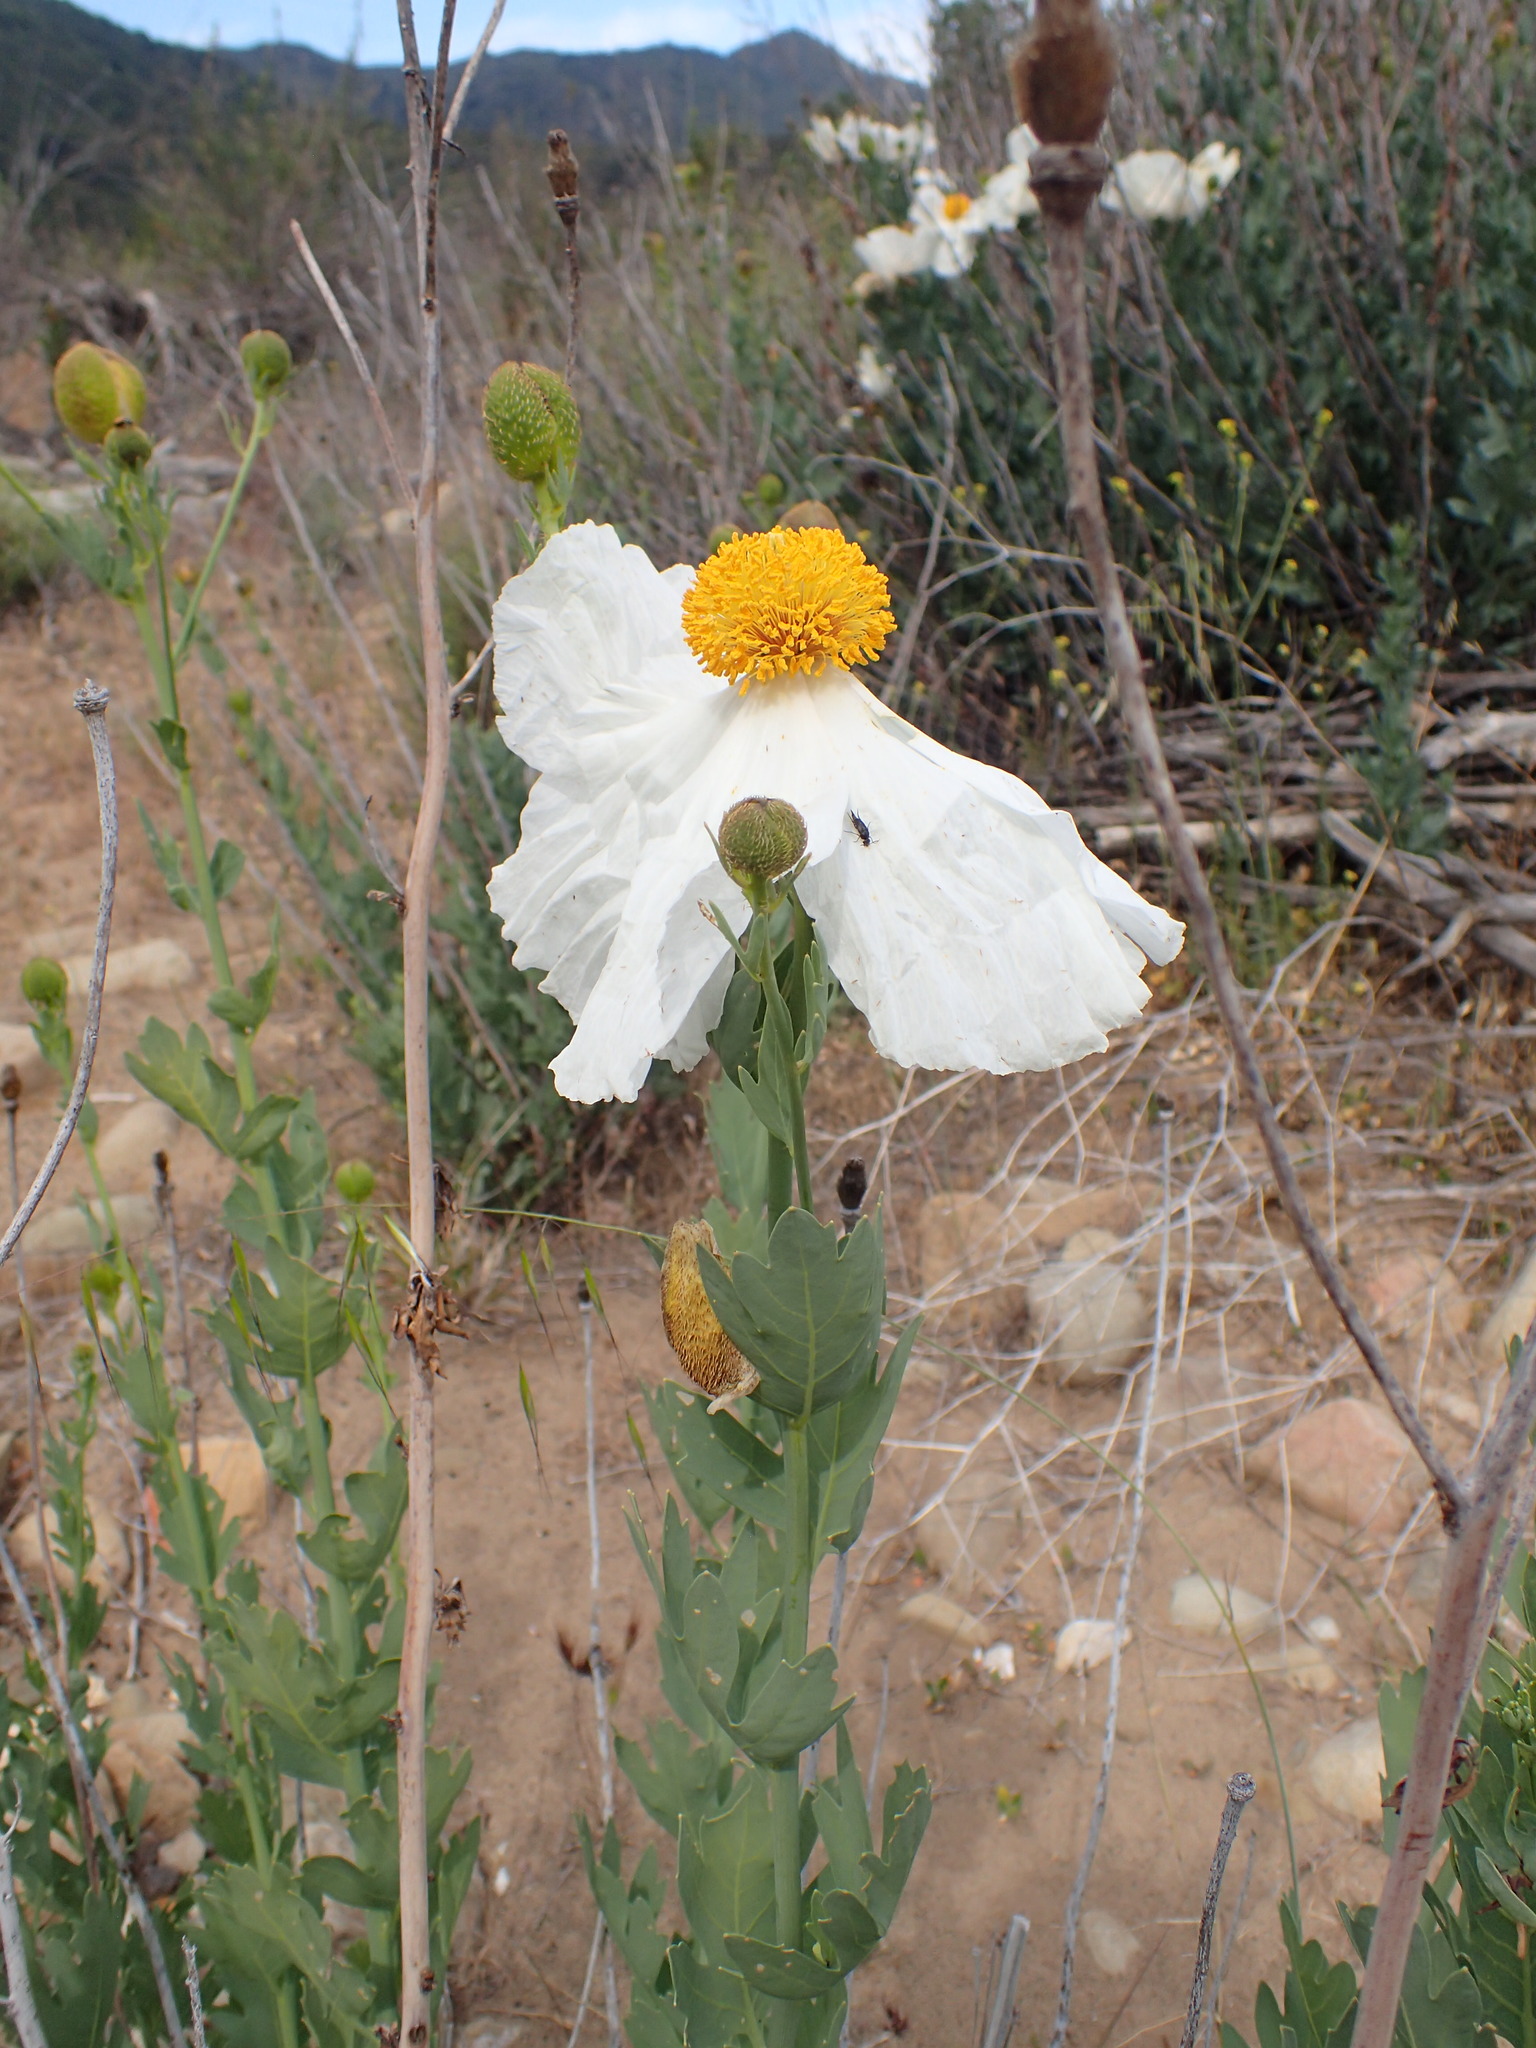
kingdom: Plantae
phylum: Tracheophyta
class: Magnoliopsida
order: Ranunculales
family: Papaveraceae
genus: Romneya
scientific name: Romneya trichocalyx
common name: Hairy matilija-poppy
